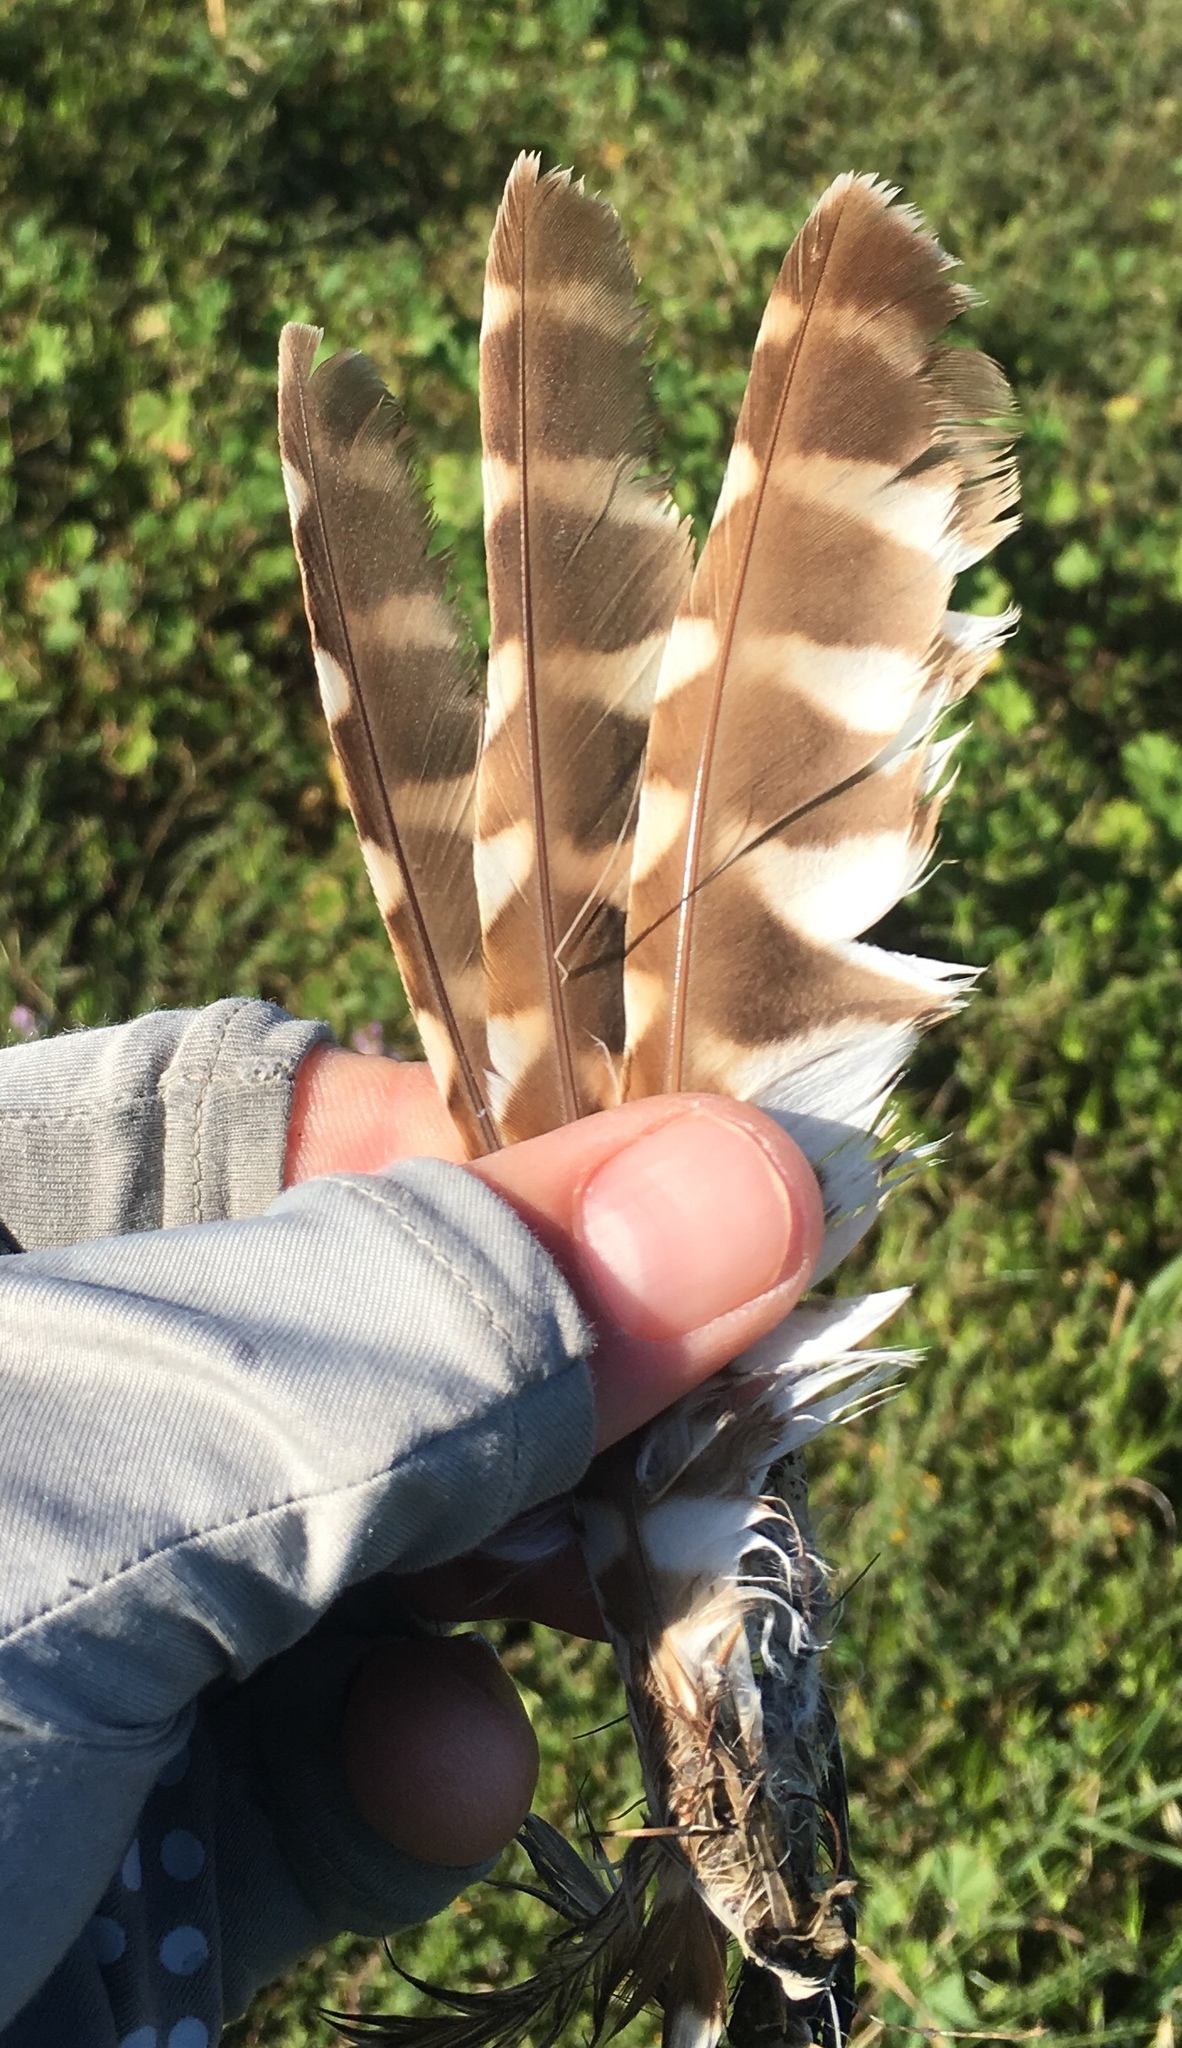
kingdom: Animalia
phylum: Chordata
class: Aves
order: Strigiformes
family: Strigidae
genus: Athene
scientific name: Athene cunicularia
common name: Burrowing owl
